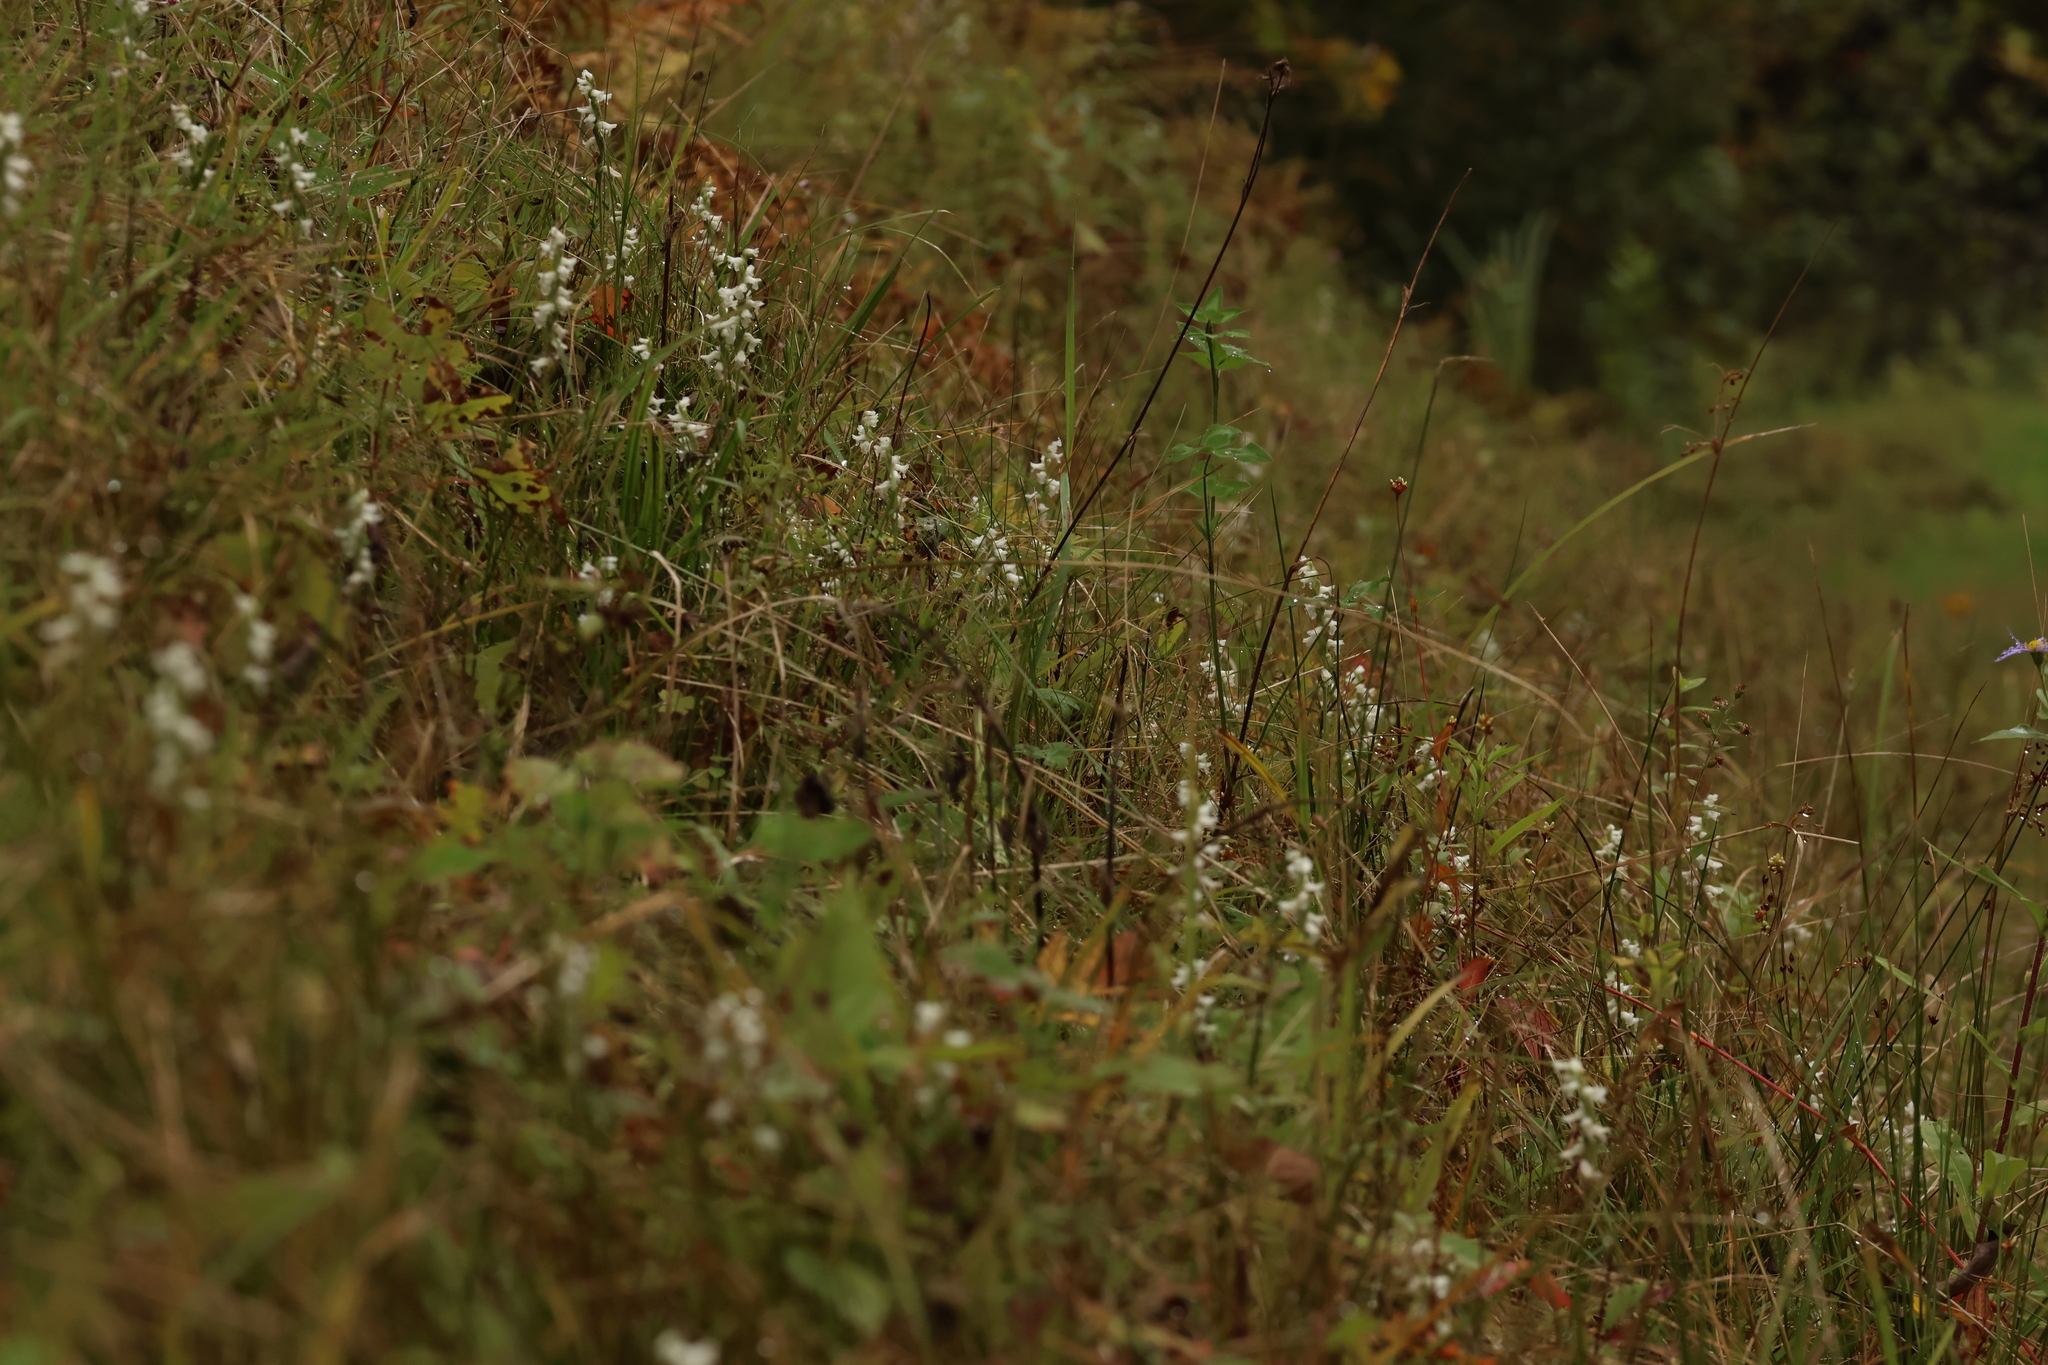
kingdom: Plantae
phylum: Tracheophyta
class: Liliopsida
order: Asparagales
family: Orchidaceae
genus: Spiranthes
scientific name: Spiranthes incurva
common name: Sphinx ladies'-tresses
